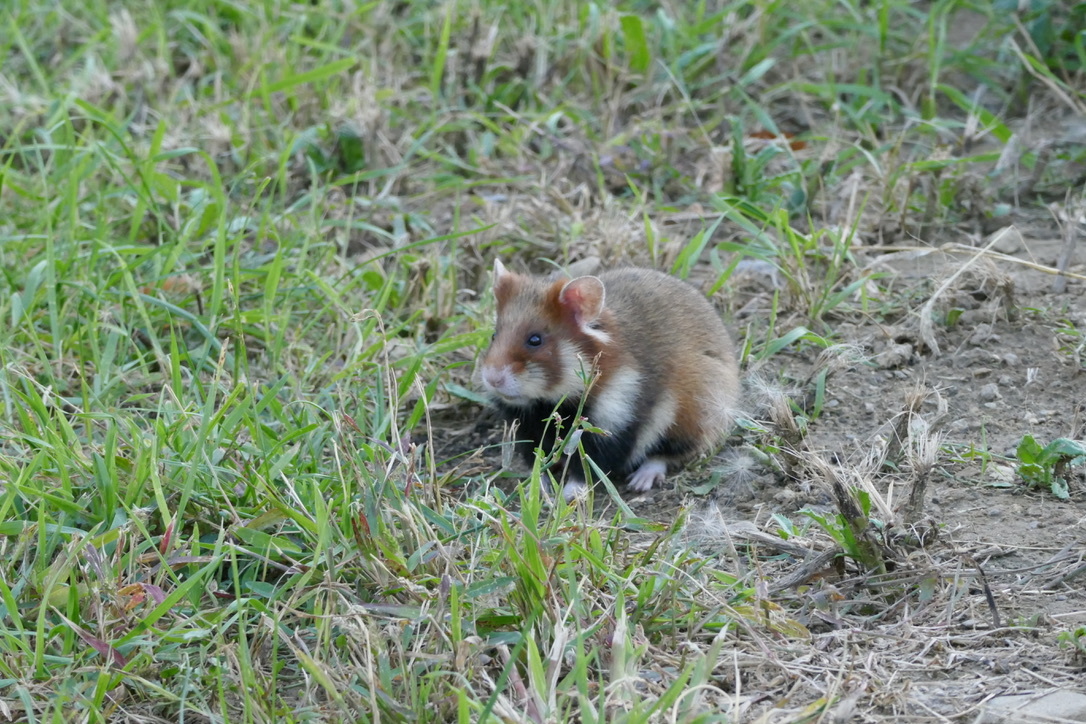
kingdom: Animalia
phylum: Chordata
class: Mammalia
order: Rodentia
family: Cricetidae
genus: Cricetus
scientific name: Cricetus cricetus
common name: Common hamster
